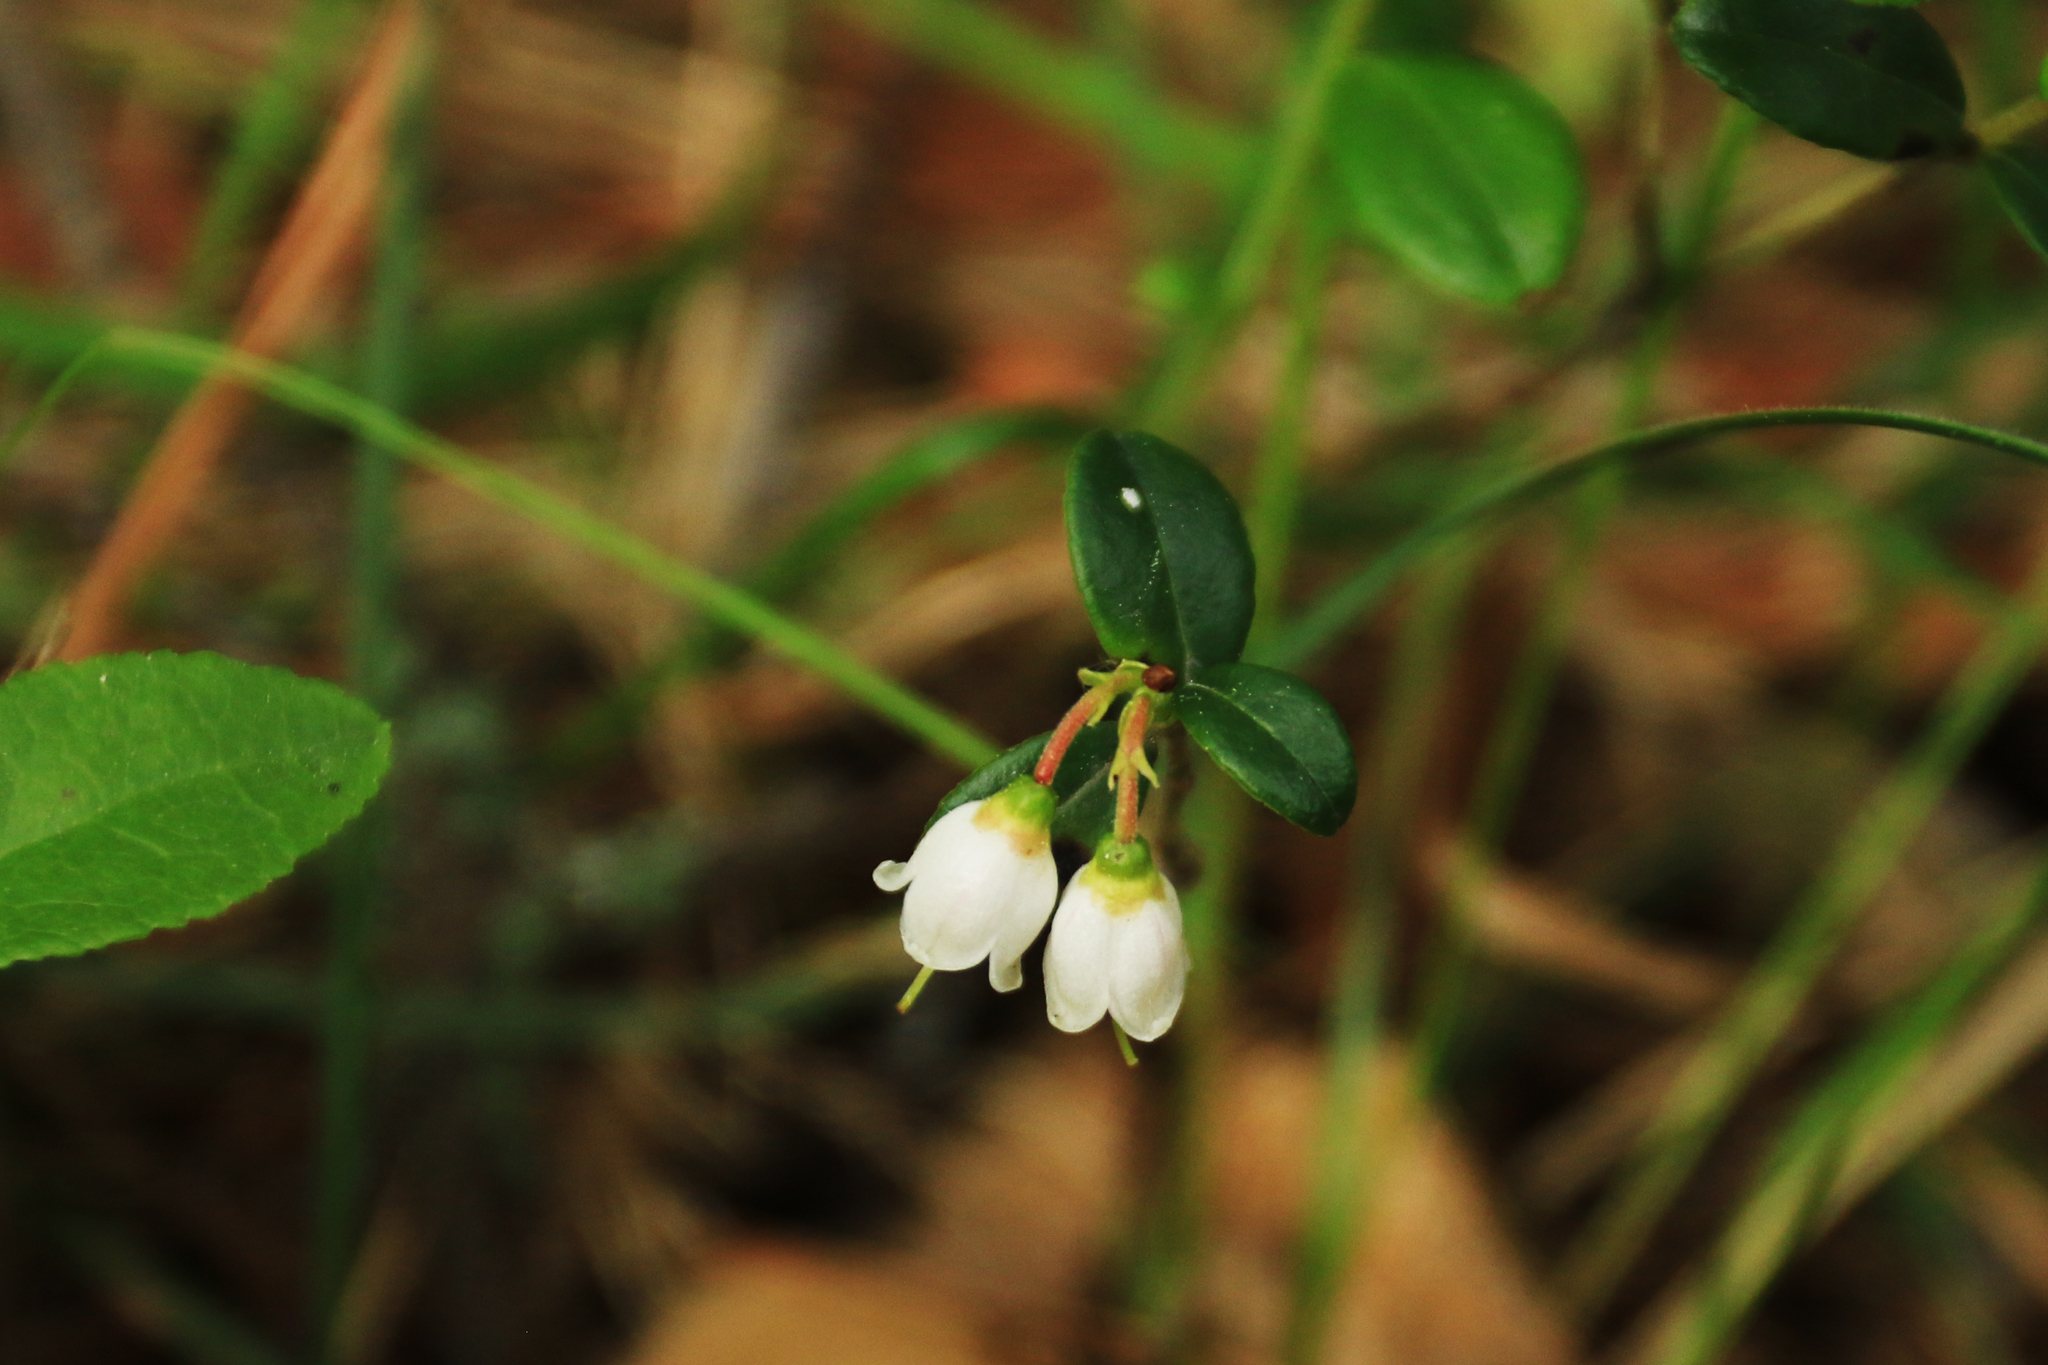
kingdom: Plantae
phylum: Tracheophyta
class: Magnoliopsida
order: Ericales
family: Ericaceae
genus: Vaccinium
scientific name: Vaccinium vitis-idaea
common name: Cowberry
